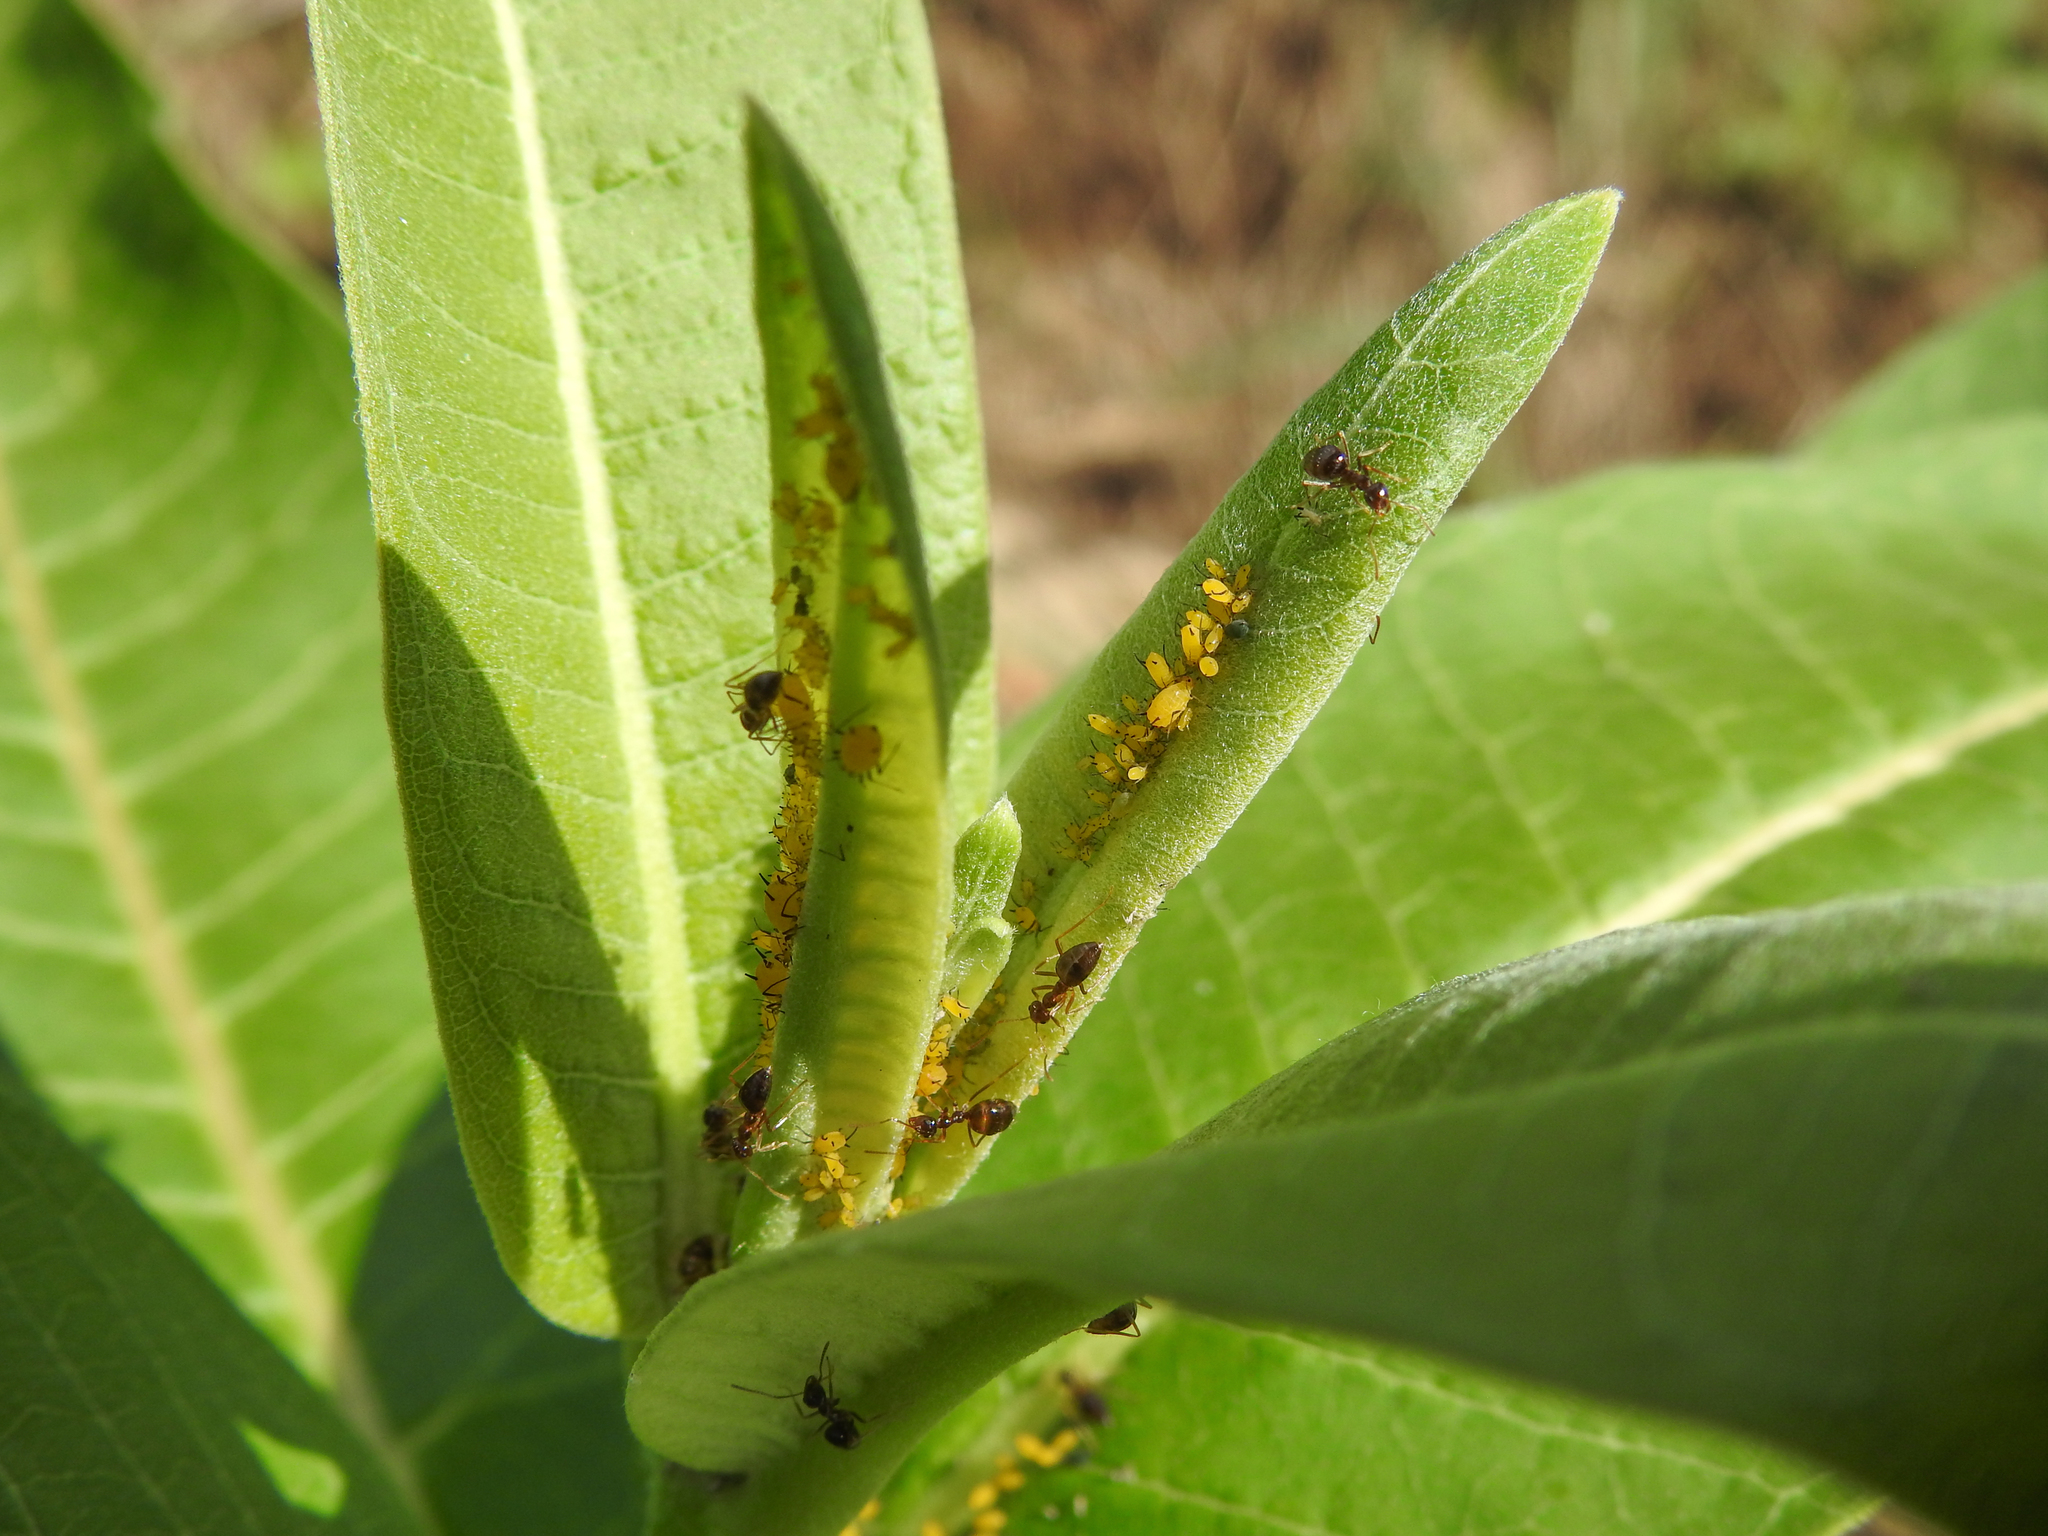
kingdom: Animalia
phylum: Arthropoda
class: Insecta
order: Hemiptera
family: Aphididae
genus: Aphis
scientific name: Aphis nerii
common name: Oleander aphid
